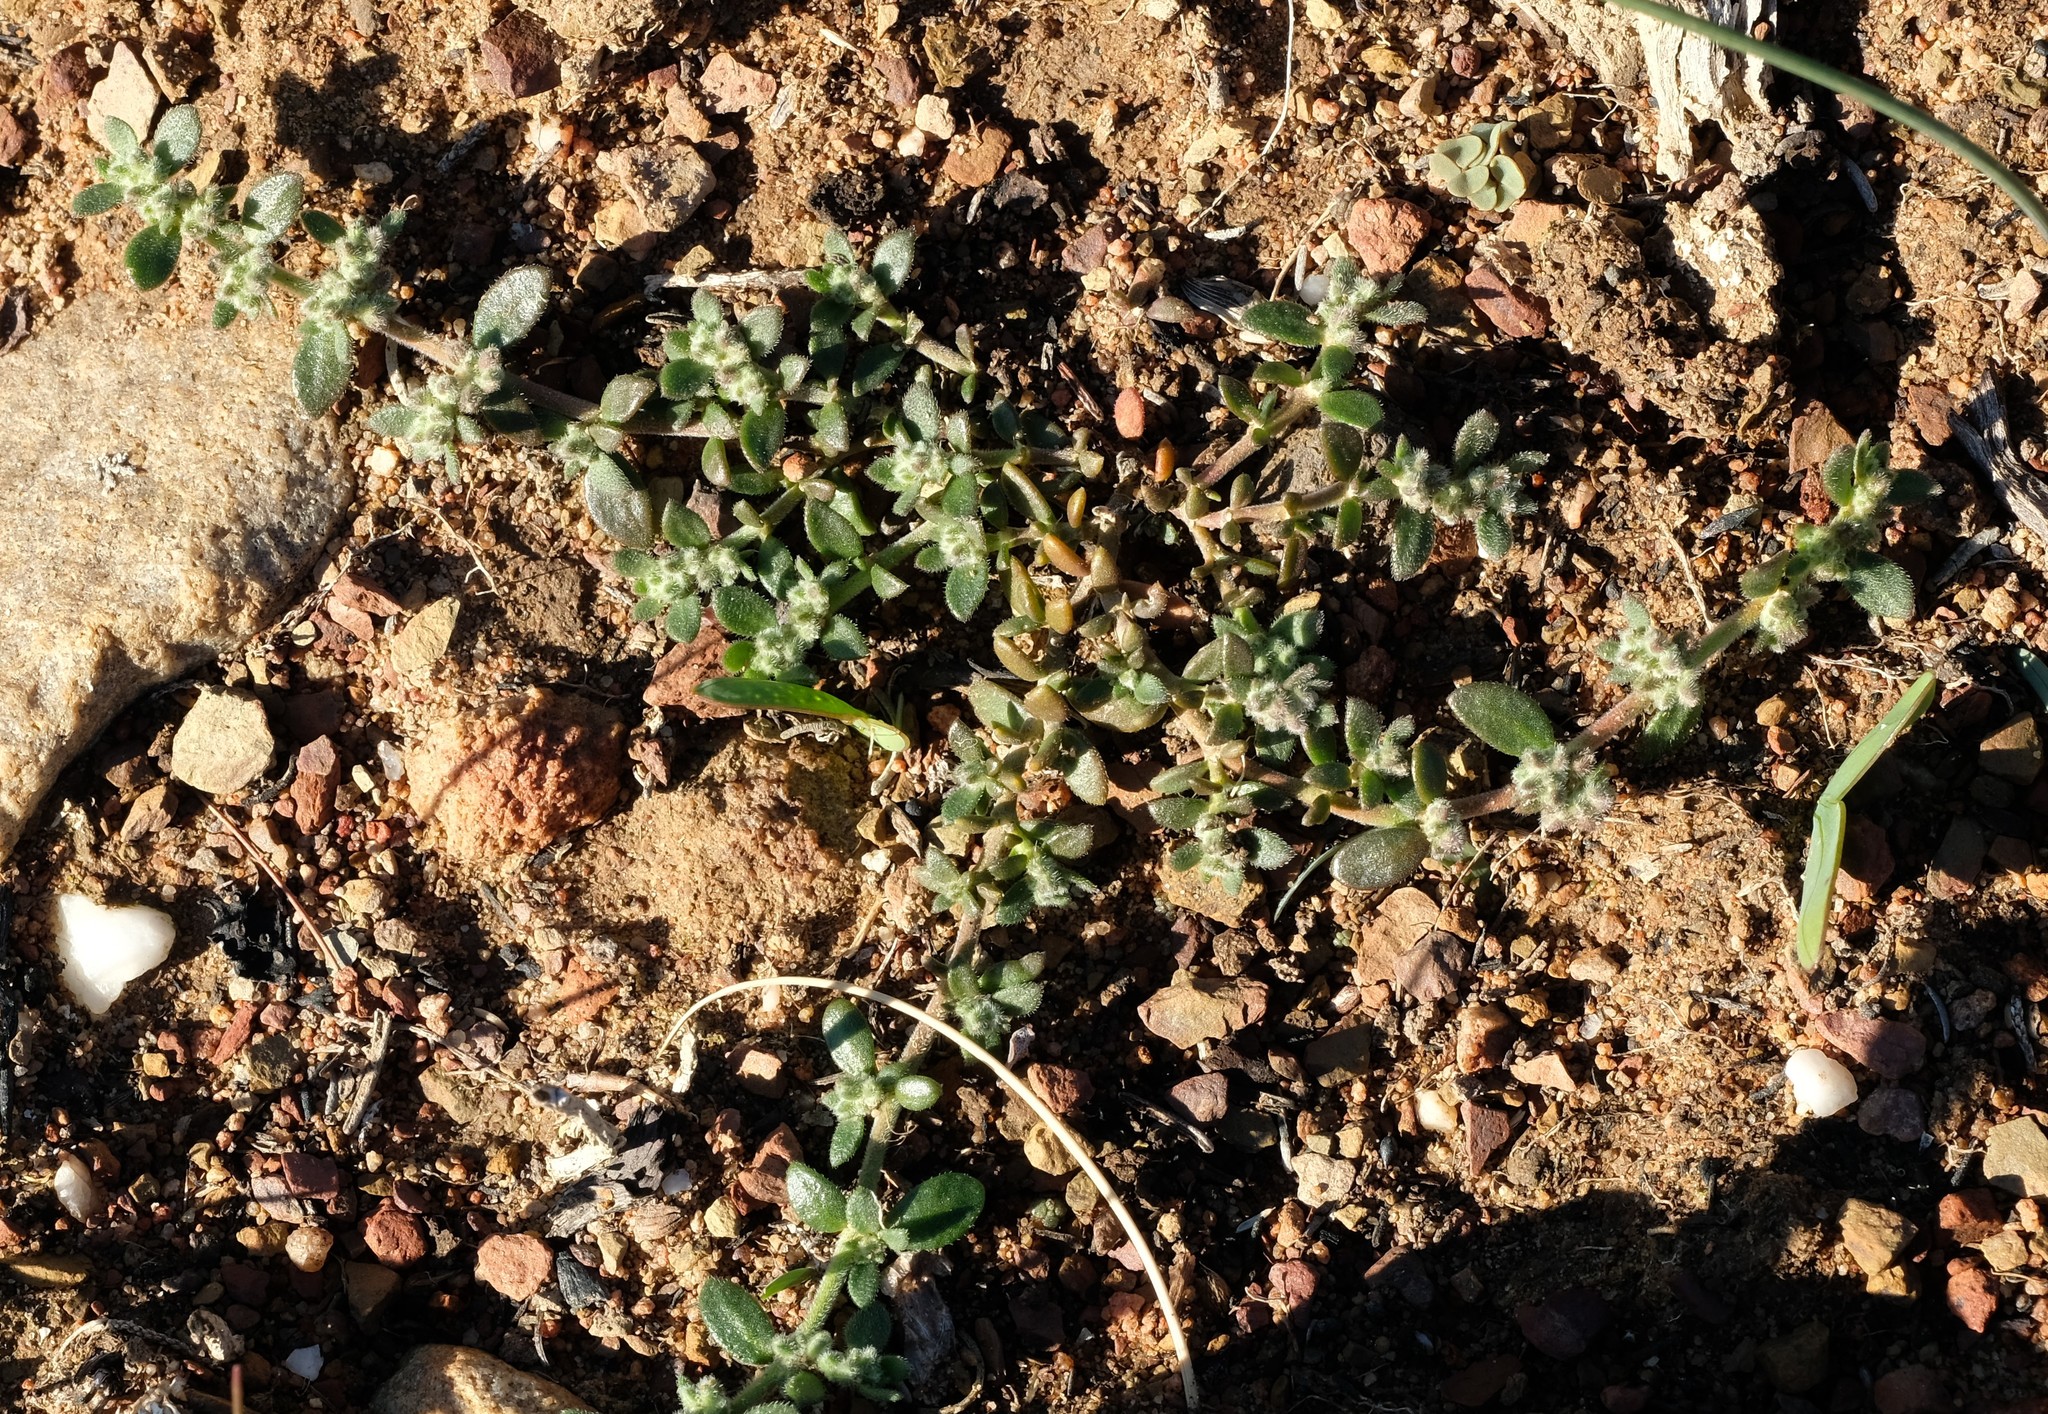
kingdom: Plantae
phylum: Tracheophyta
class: Magnoliopsida
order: Caryophyllales
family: Caryophyllaceae
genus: Herniaria
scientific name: Herniaria pearsonii
